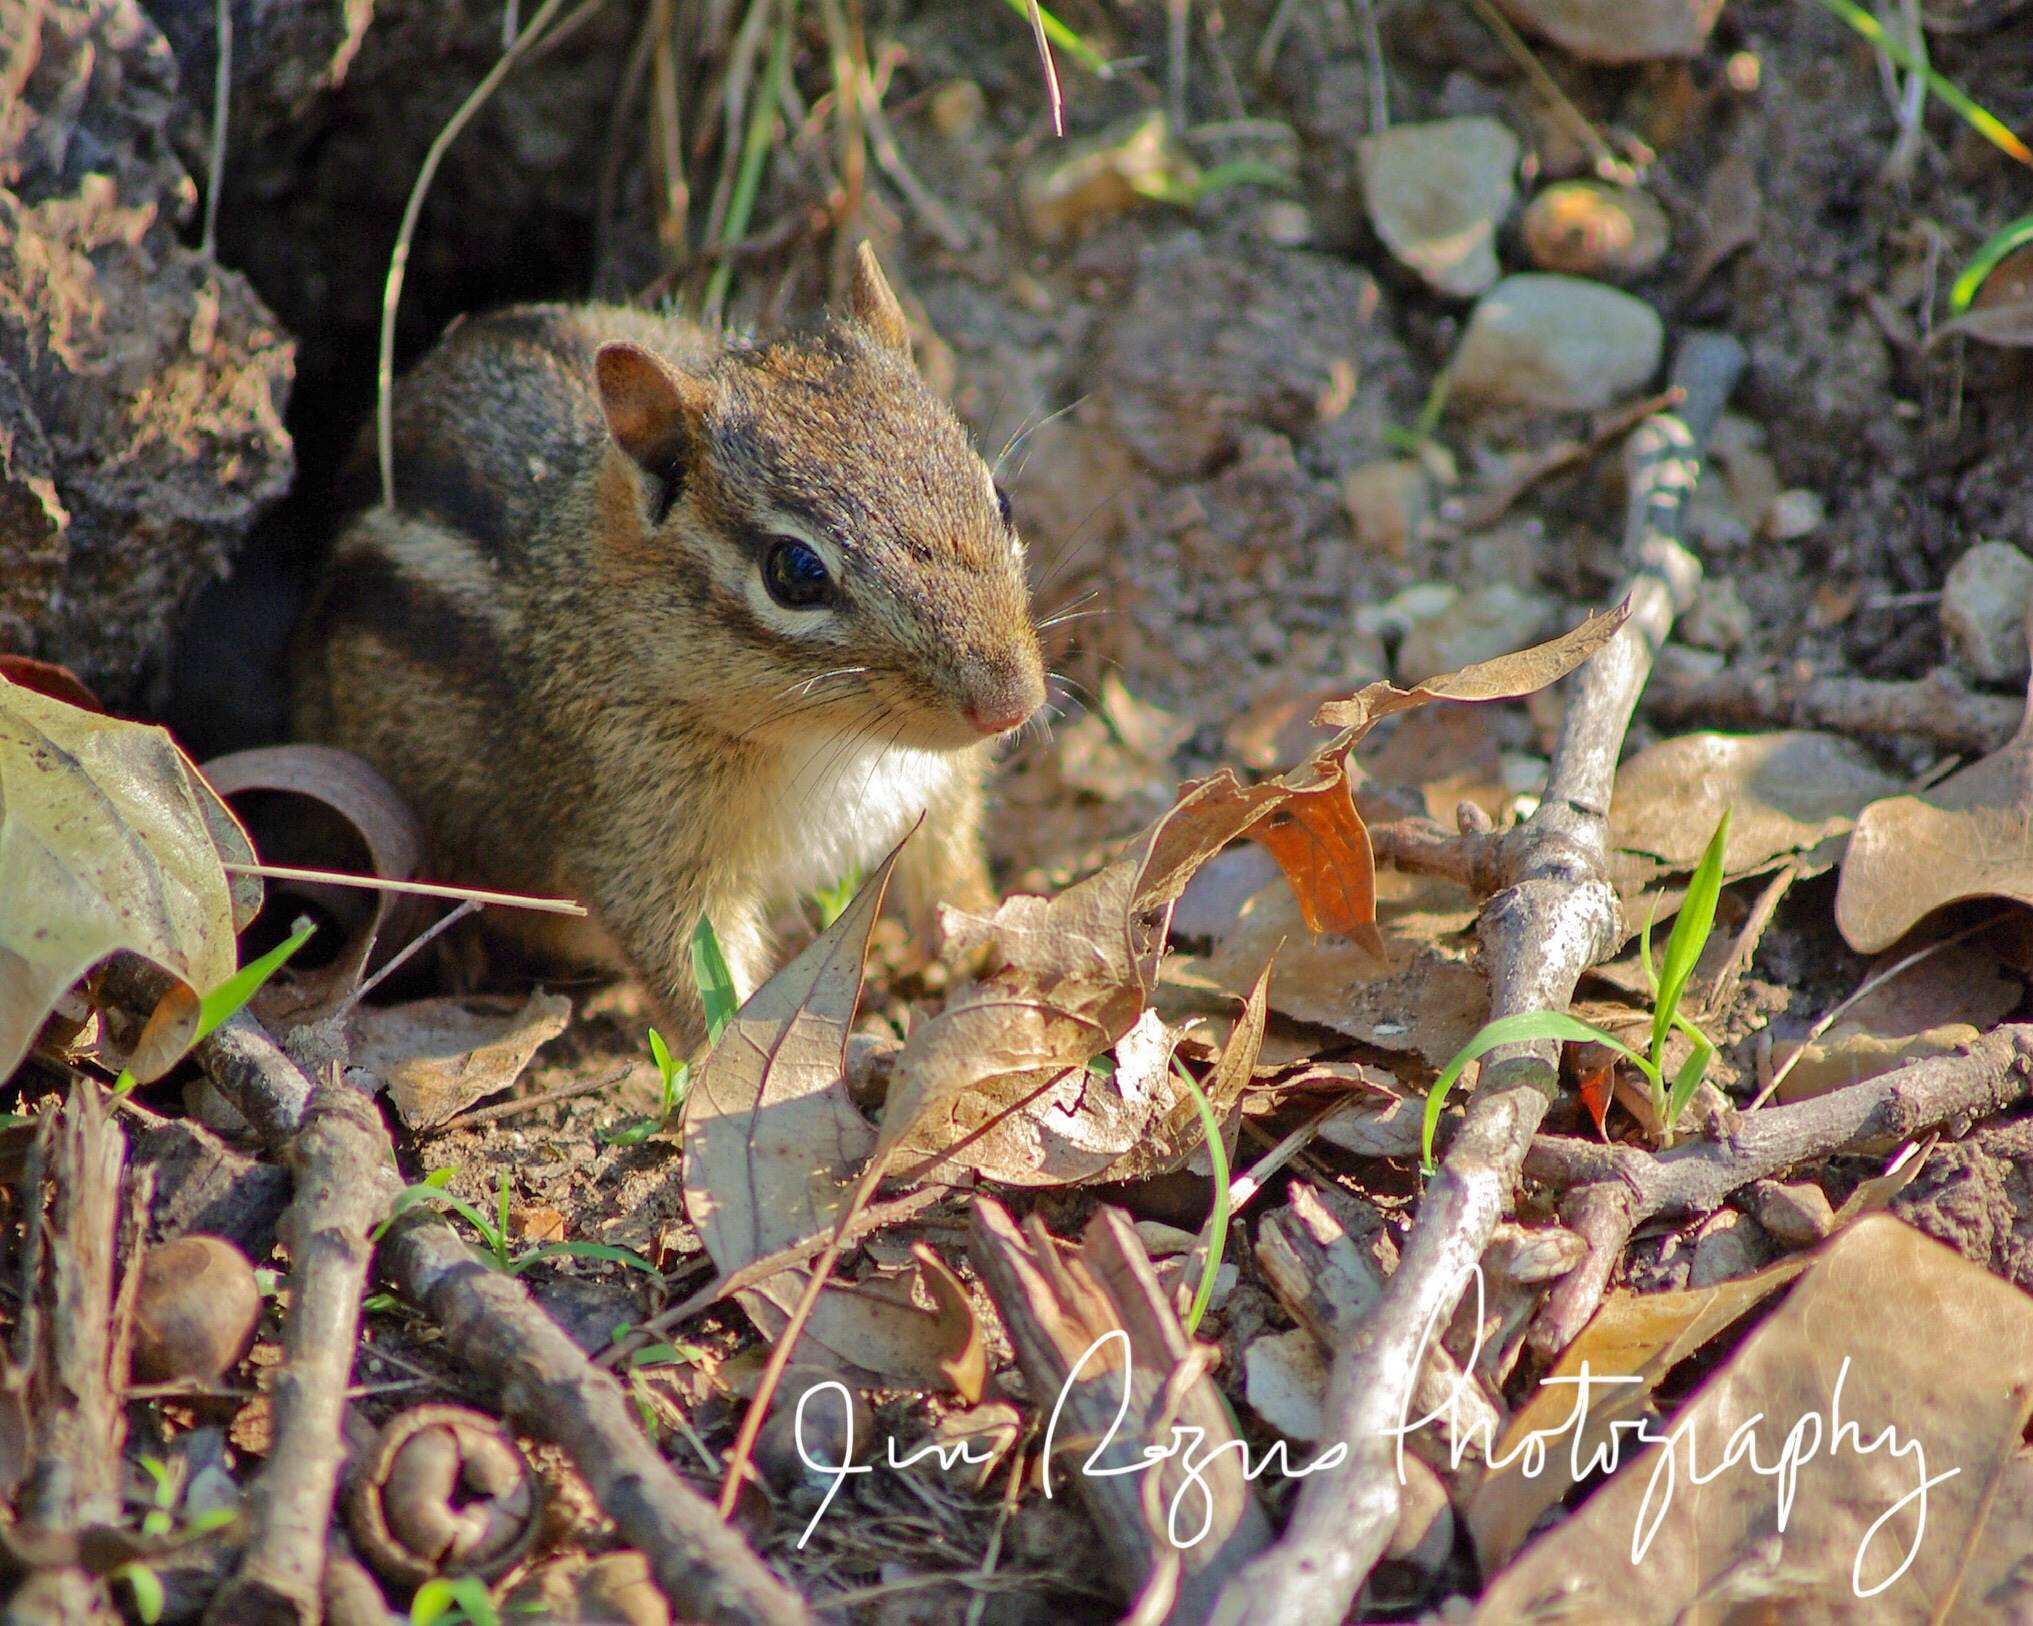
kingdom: Animalia
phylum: Chordata
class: Mammalia
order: Rodentia
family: Sciuridae
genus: Tamias
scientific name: Tamias striatus
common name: Eastern chipmunk
